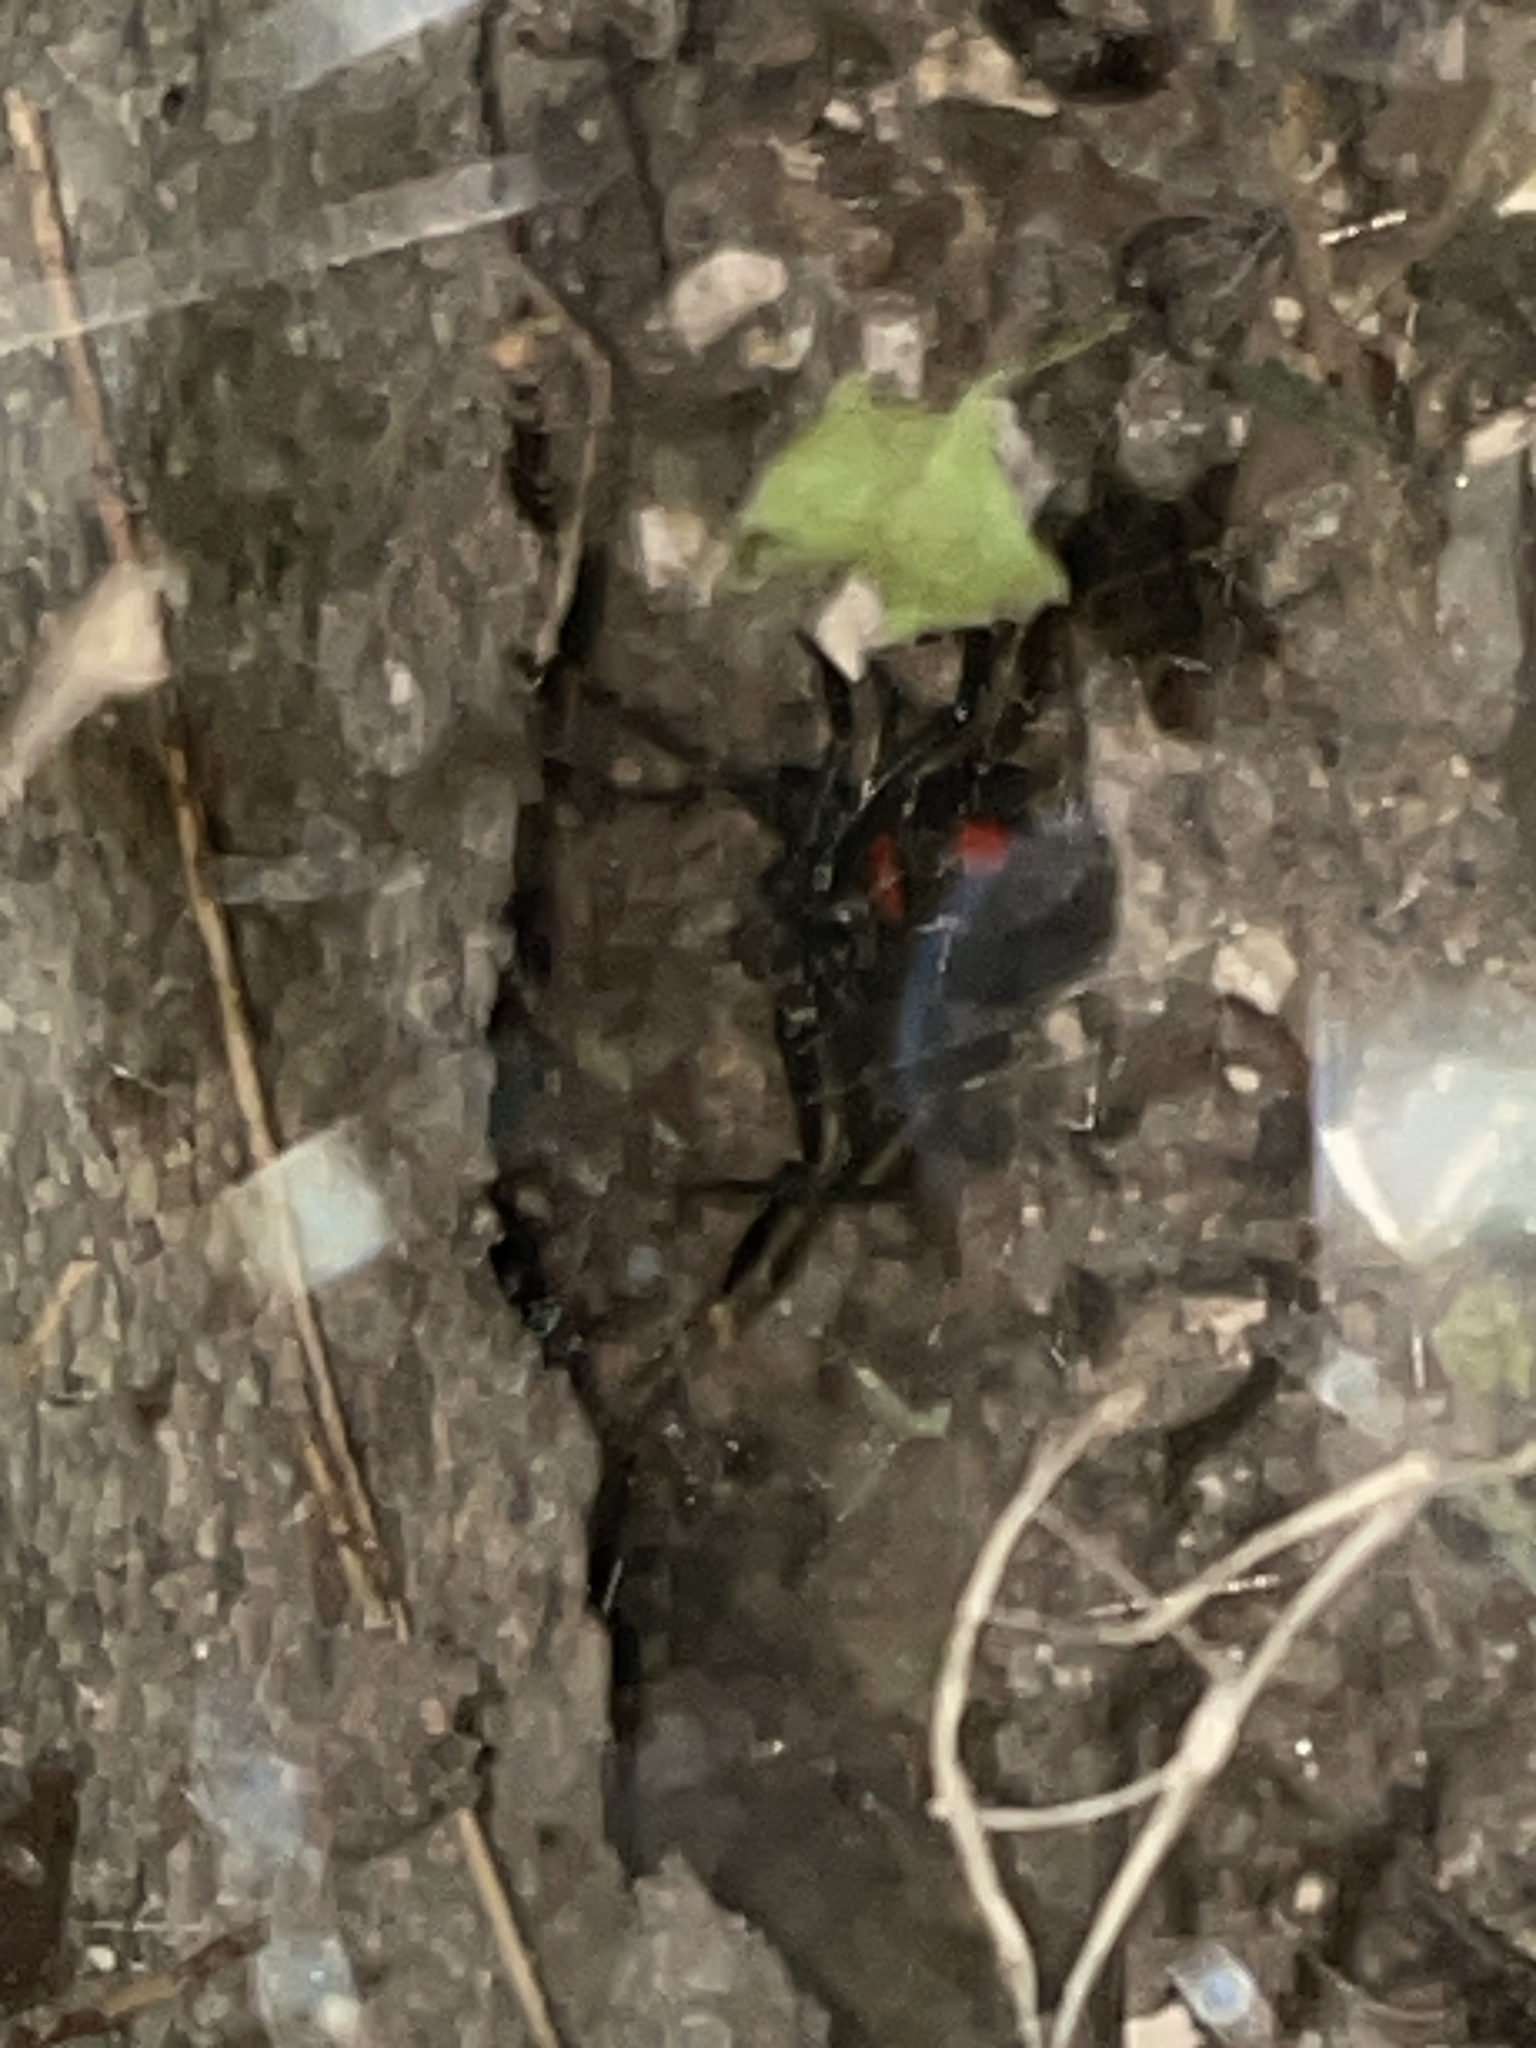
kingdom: Animalia
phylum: Arthropoda
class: Arachnida
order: Araneae
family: Theridiidae
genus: Latrodectus
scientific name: Latrodectus mactans
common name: Cobweb spiders
